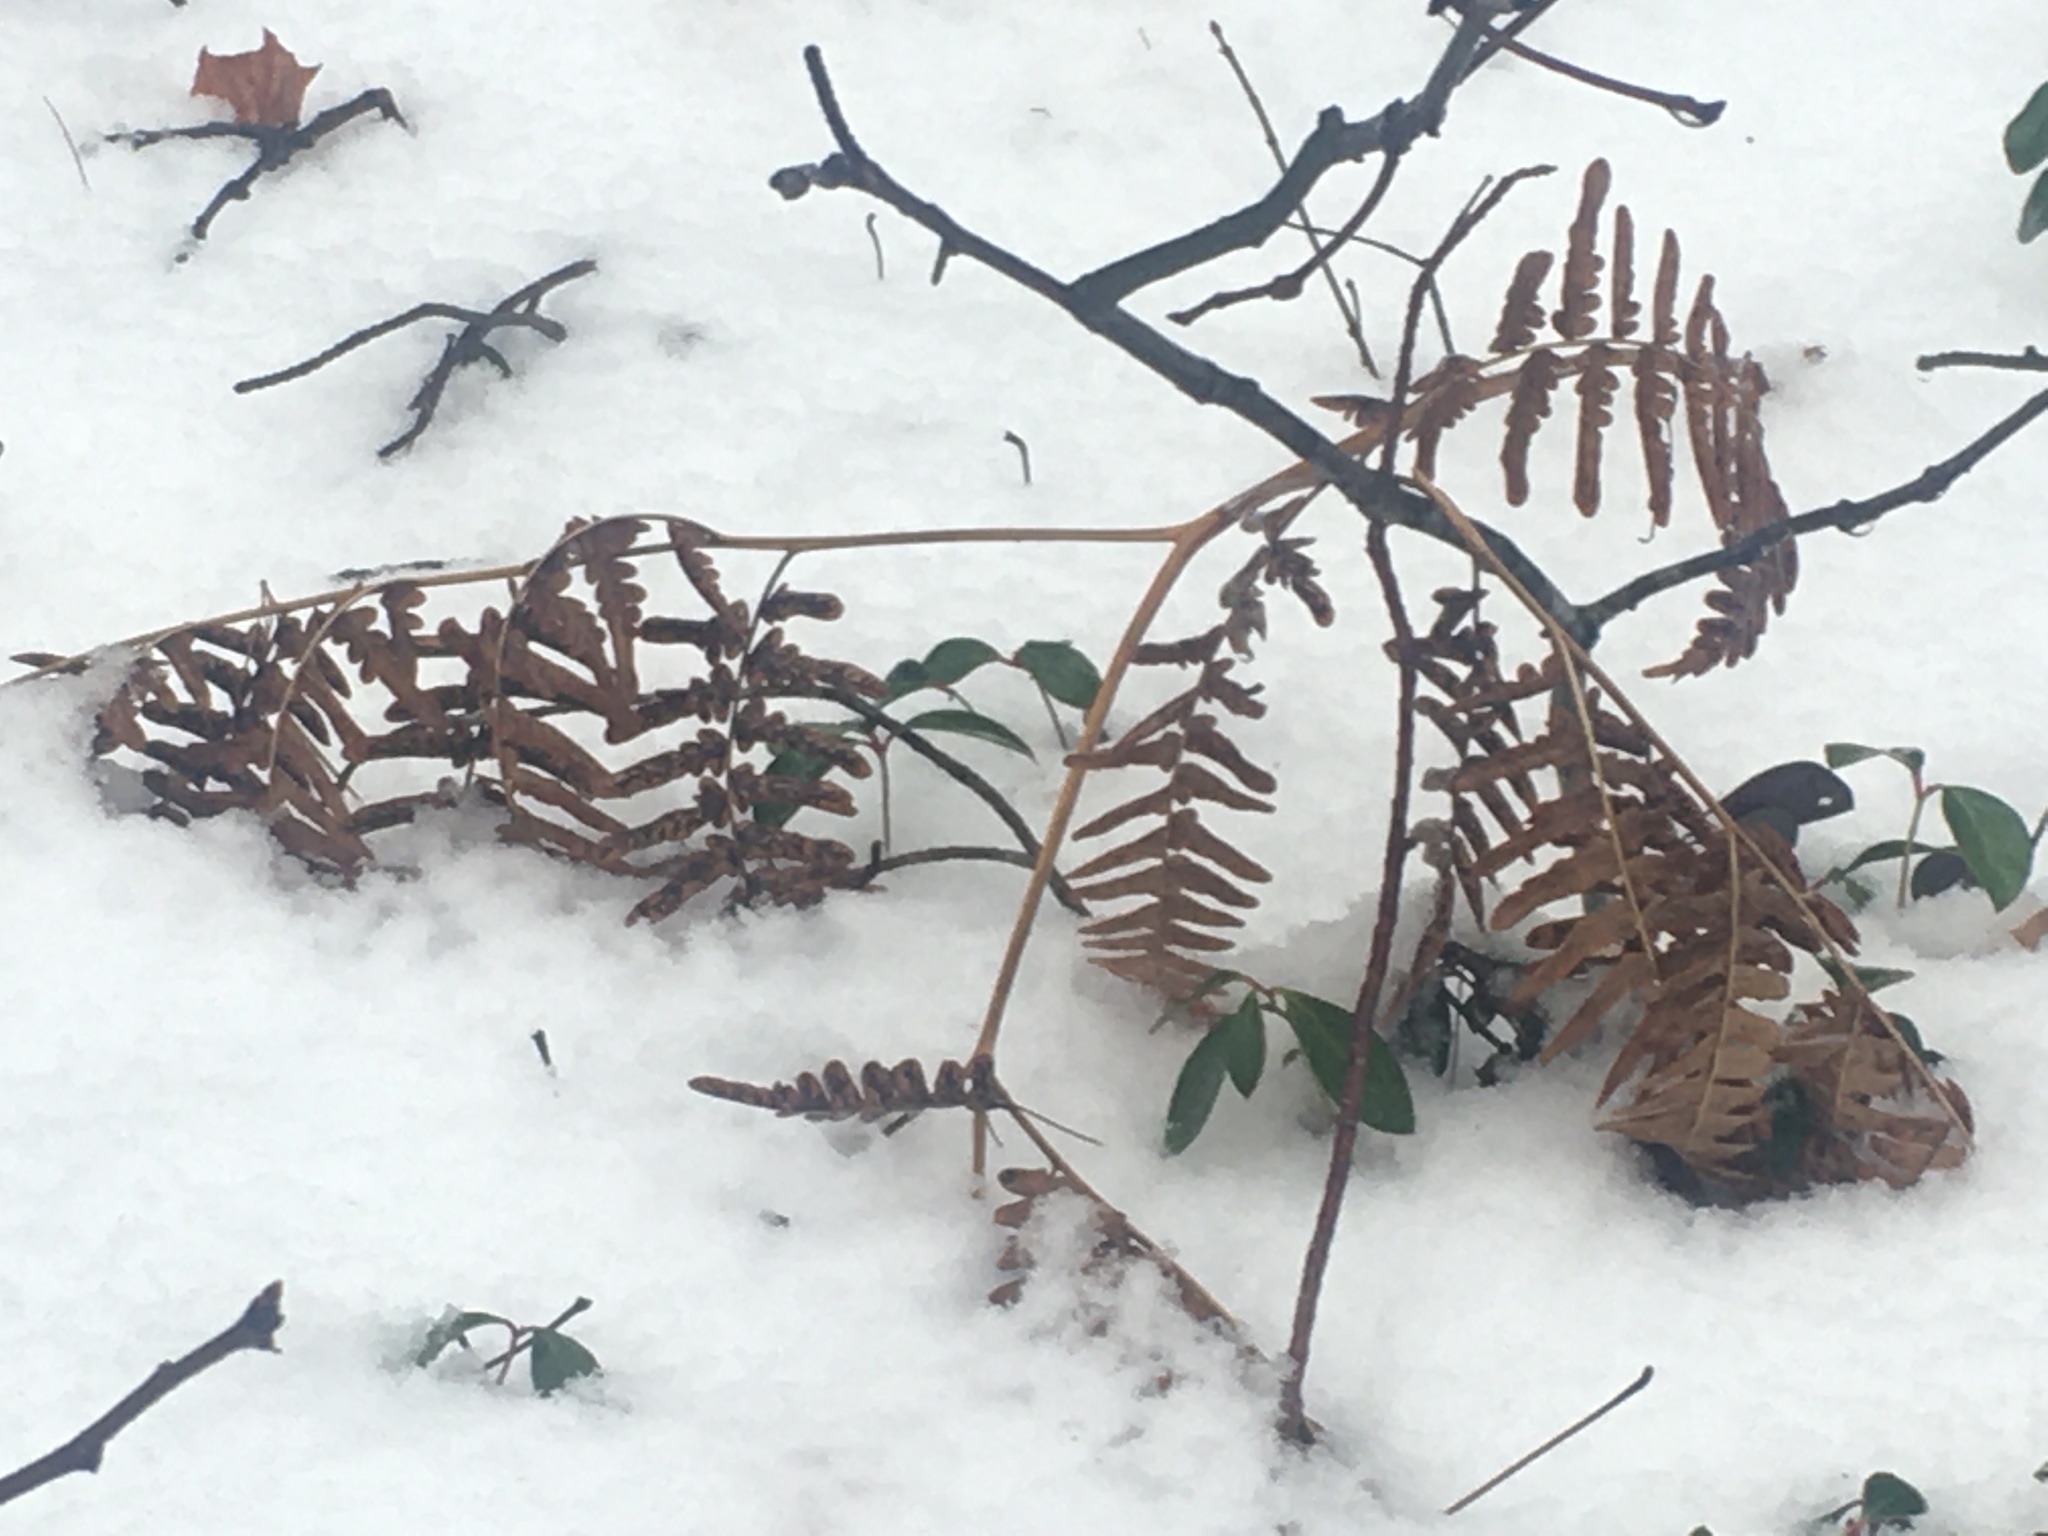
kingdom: Plantae
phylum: Tracheophyta
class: Polypodiopsida
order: Polypodiales
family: Dennstaedtiaceae
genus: Pteridium
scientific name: Pteridium aquilinum
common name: Bracken
